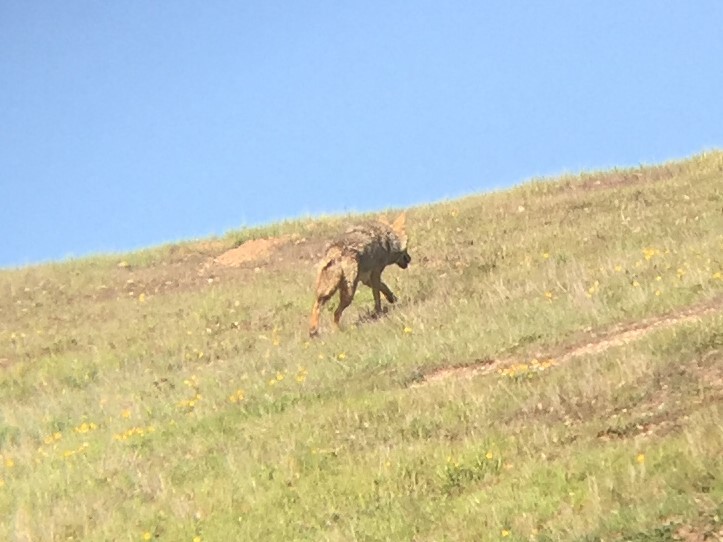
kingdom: Animalia
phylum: Chordata
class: Mammalia
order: Carnivora
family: Canidae
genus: Canis
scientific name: Canis latrans
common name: Coyote
